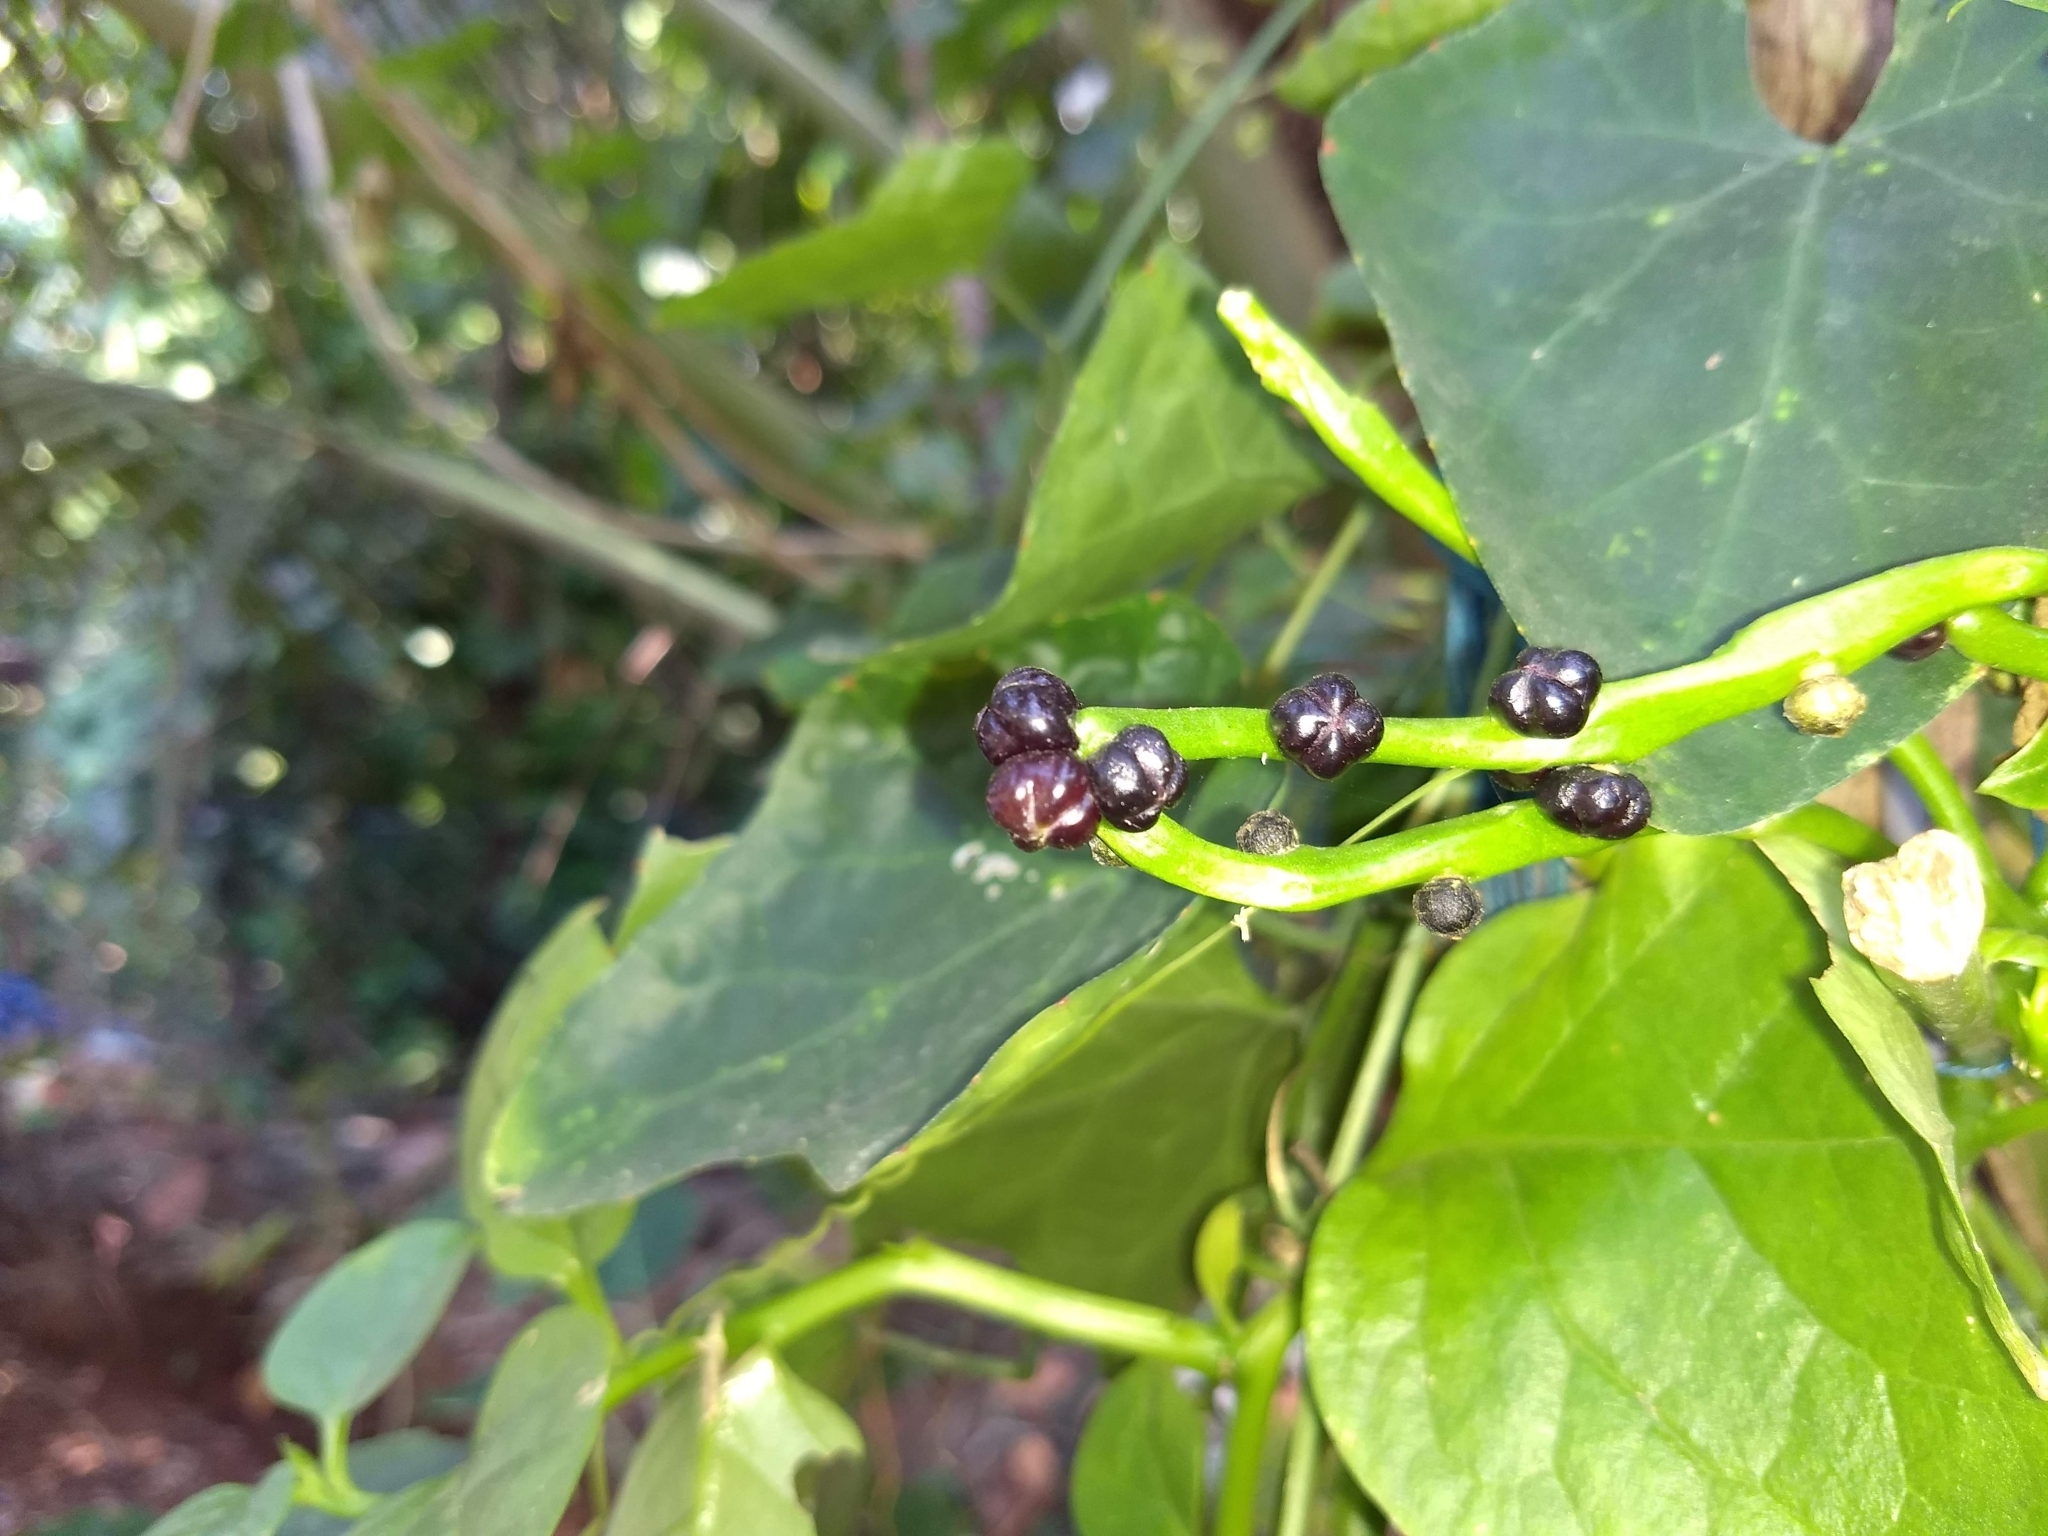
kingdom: Plantae
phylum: Tracheophyta
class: Magnoliopsida
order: Caryophyllales
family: Basellaceae
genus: Basella
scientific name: Basella alba
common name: Indian spinach
